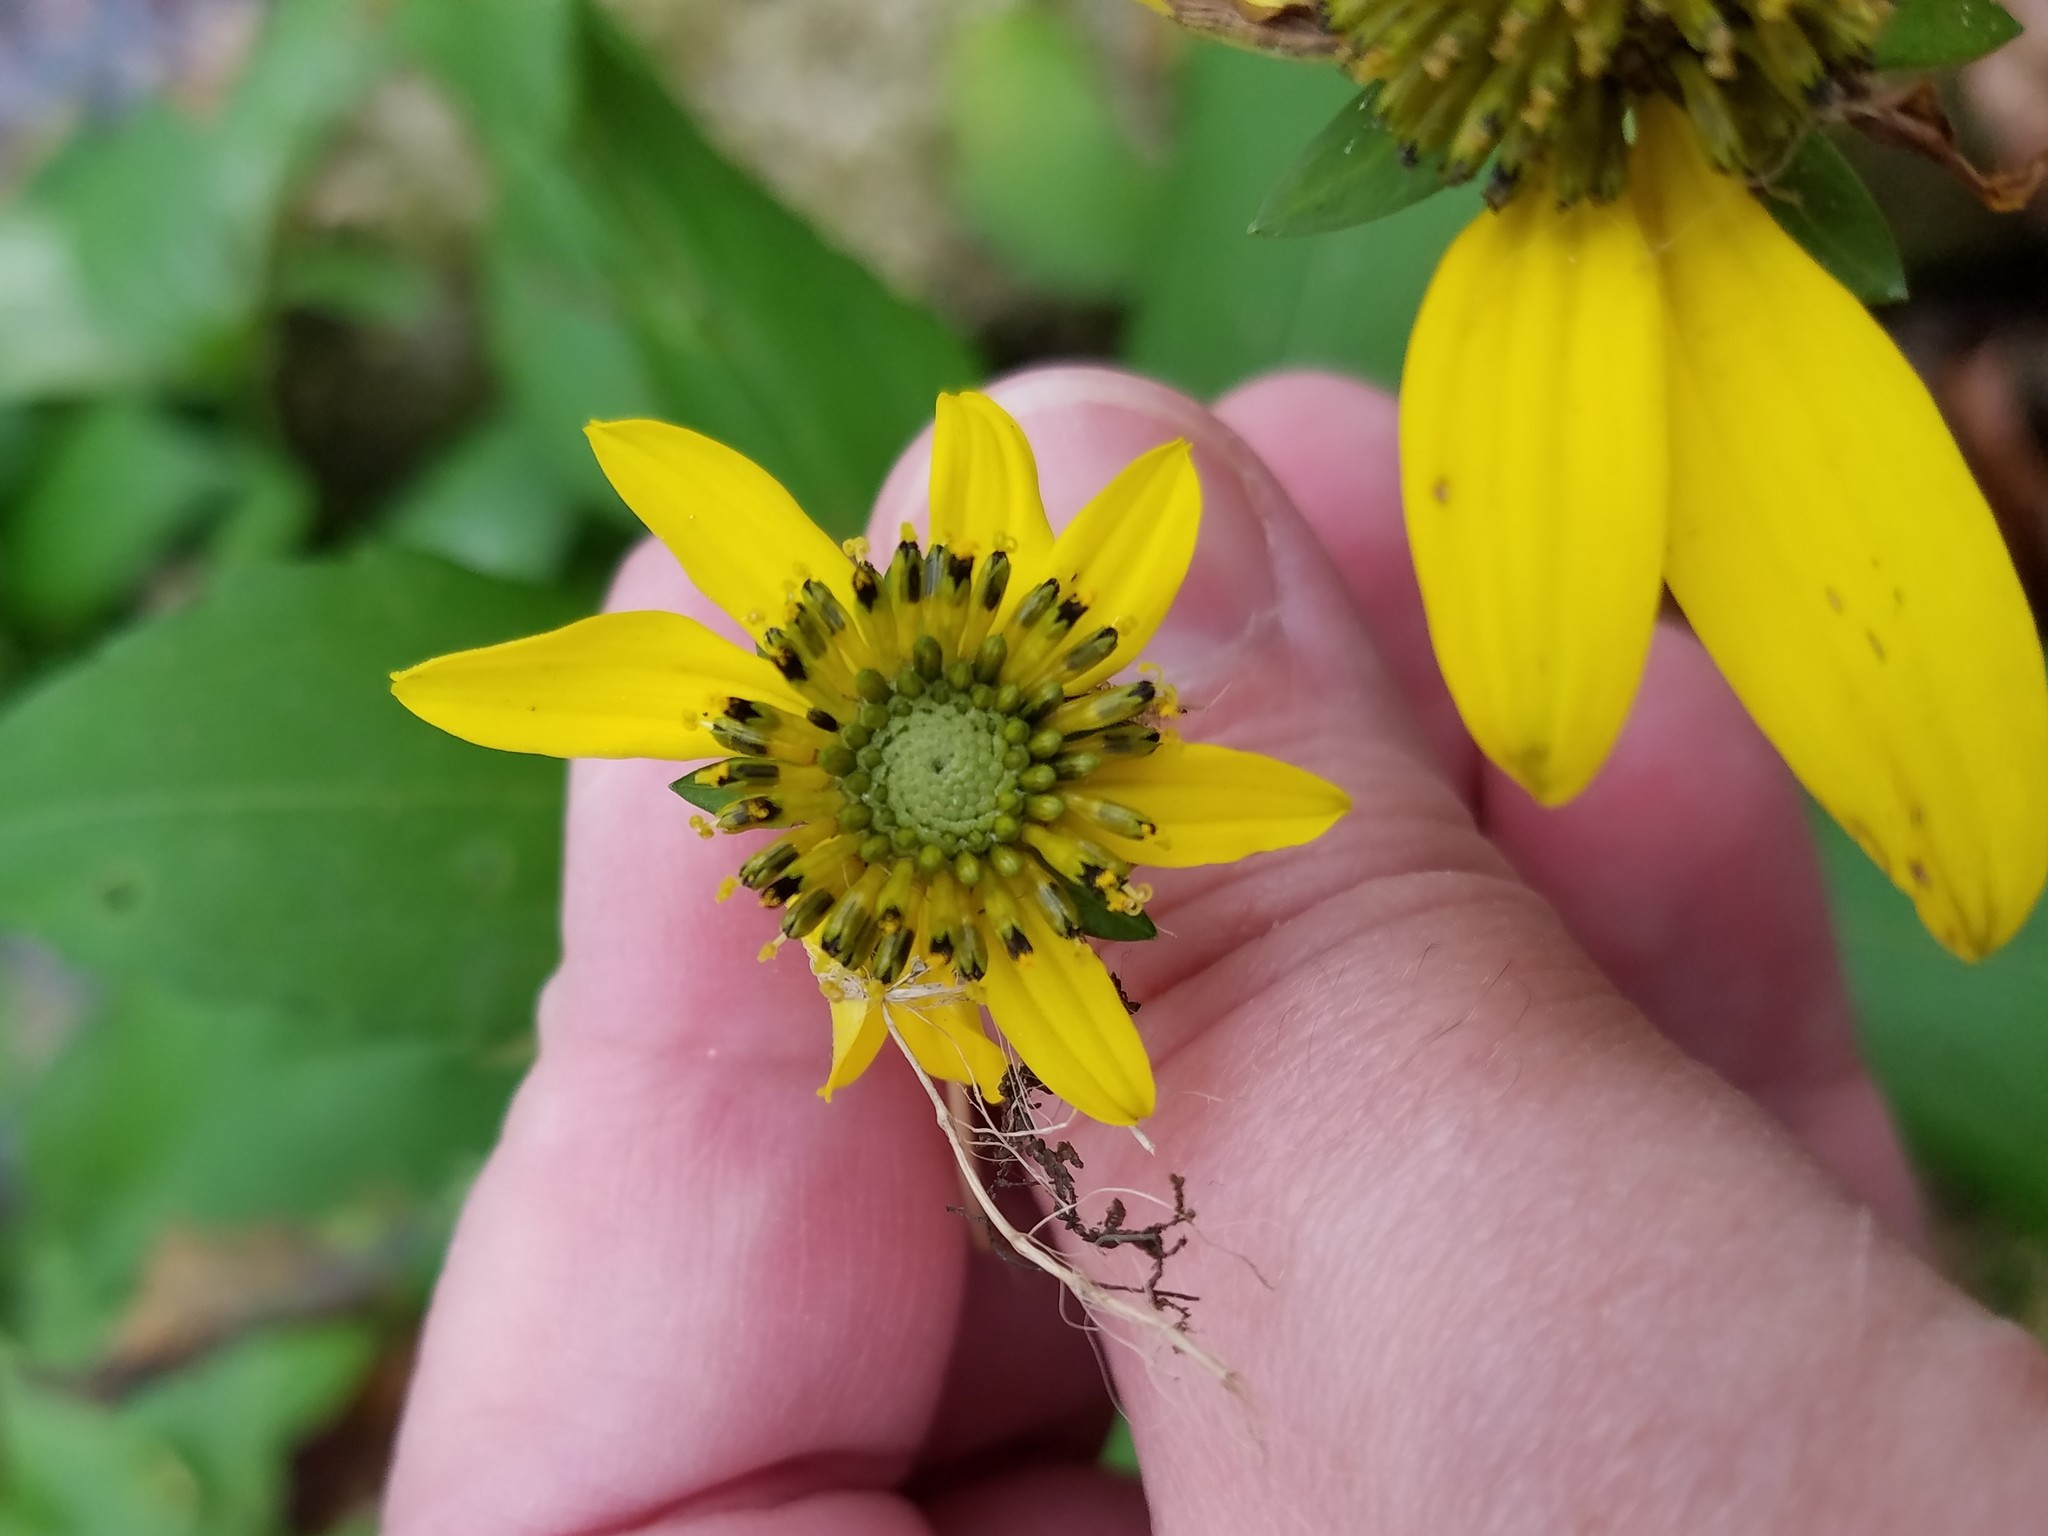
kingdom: Plantae
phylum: Tracheophyta
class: Magnoliopsida
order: Asterales
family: Asteraceae
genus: Rudbeckia
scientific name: Rudbeckia laciniata
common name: Coneflower
